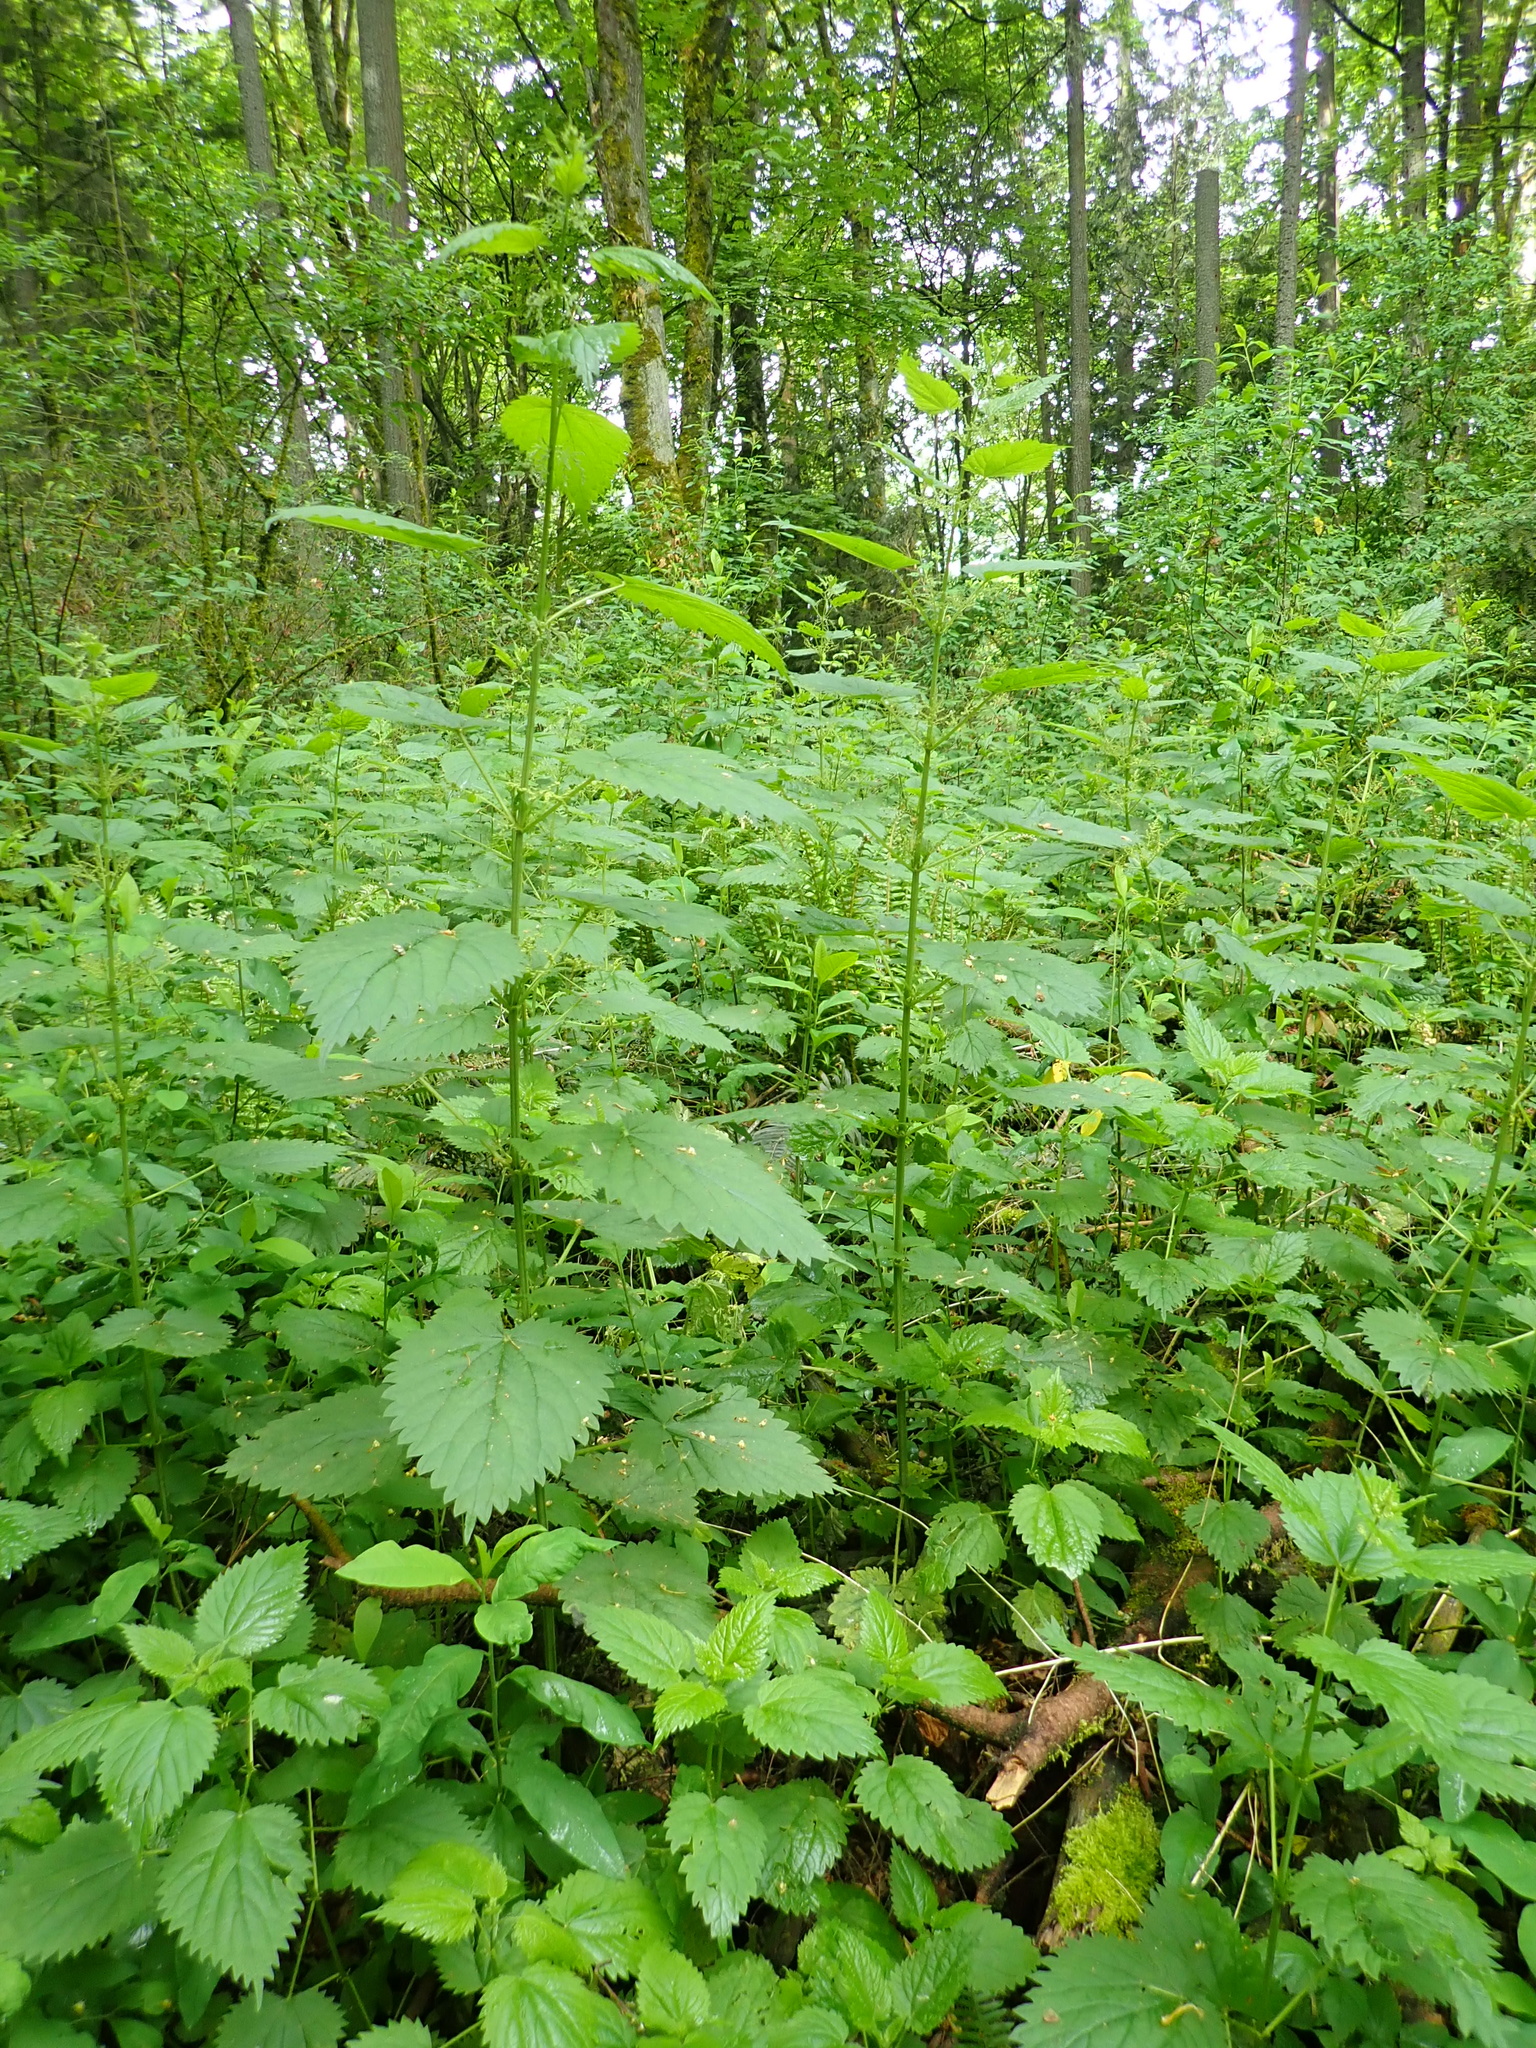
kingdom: Plantae
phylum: Tracheophyta
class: Magnoliopsida
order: Rosales
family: Urticaceae
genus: Urtica
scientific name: Urtica dioica
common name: Common nettle
